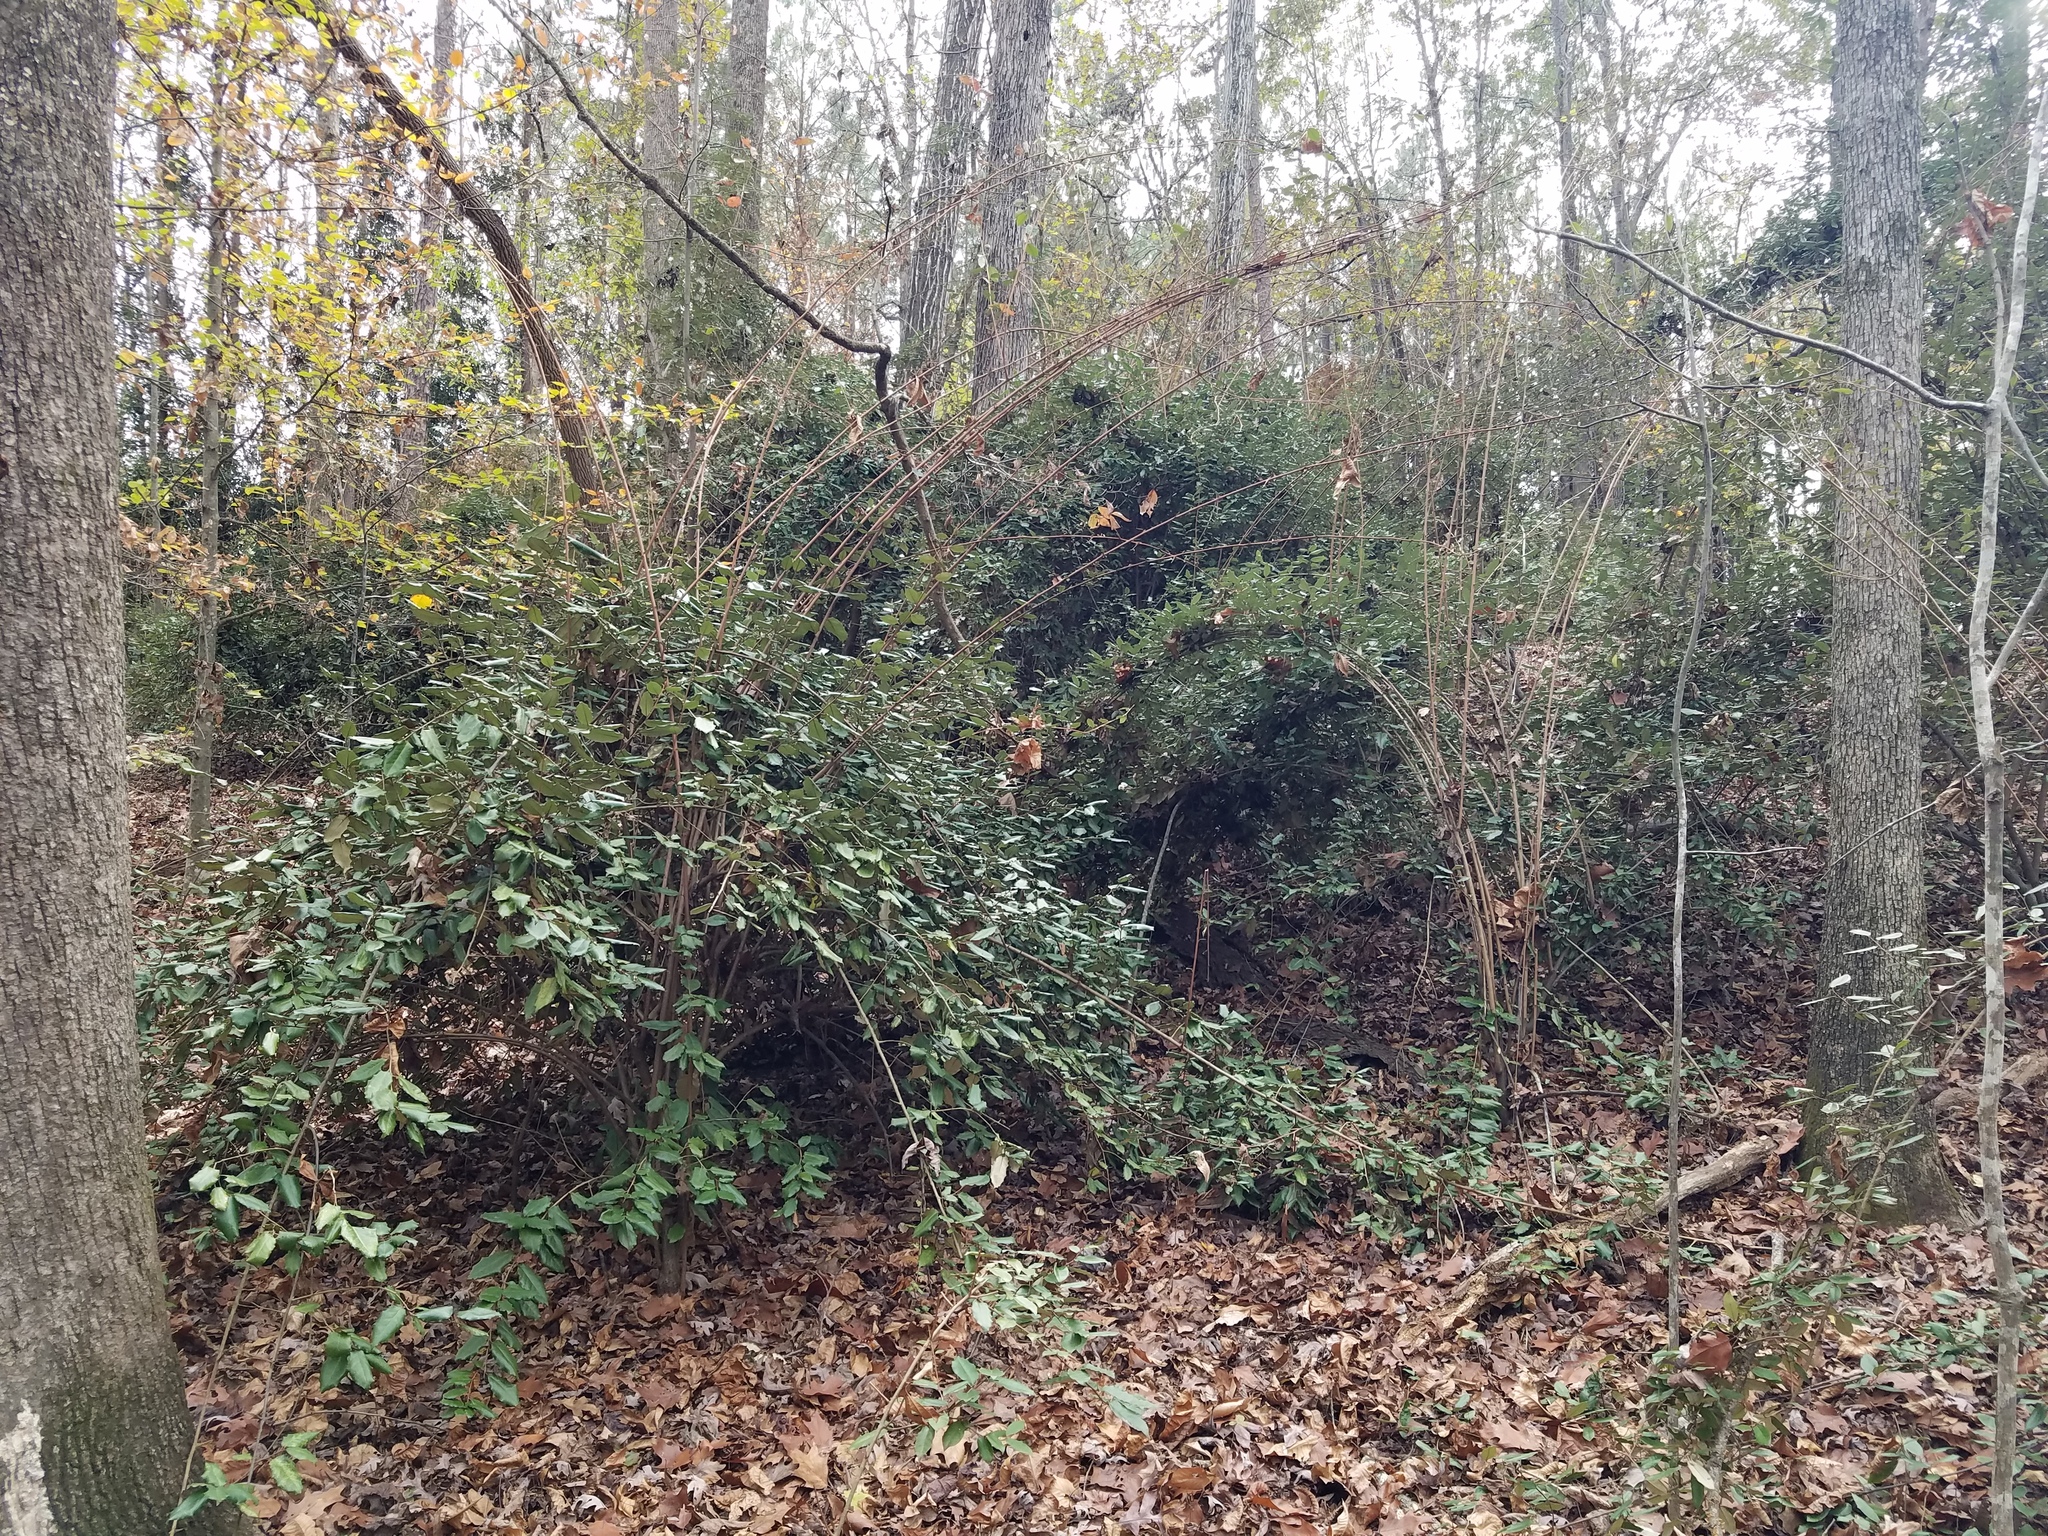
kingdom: Plantae
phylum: Tracheophyta
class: Magnoliopsida
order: Rosales
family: Elaeagnaceae
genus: Elaeagnus
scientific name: Elaeagnus pungens
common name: Spiny oleaster
